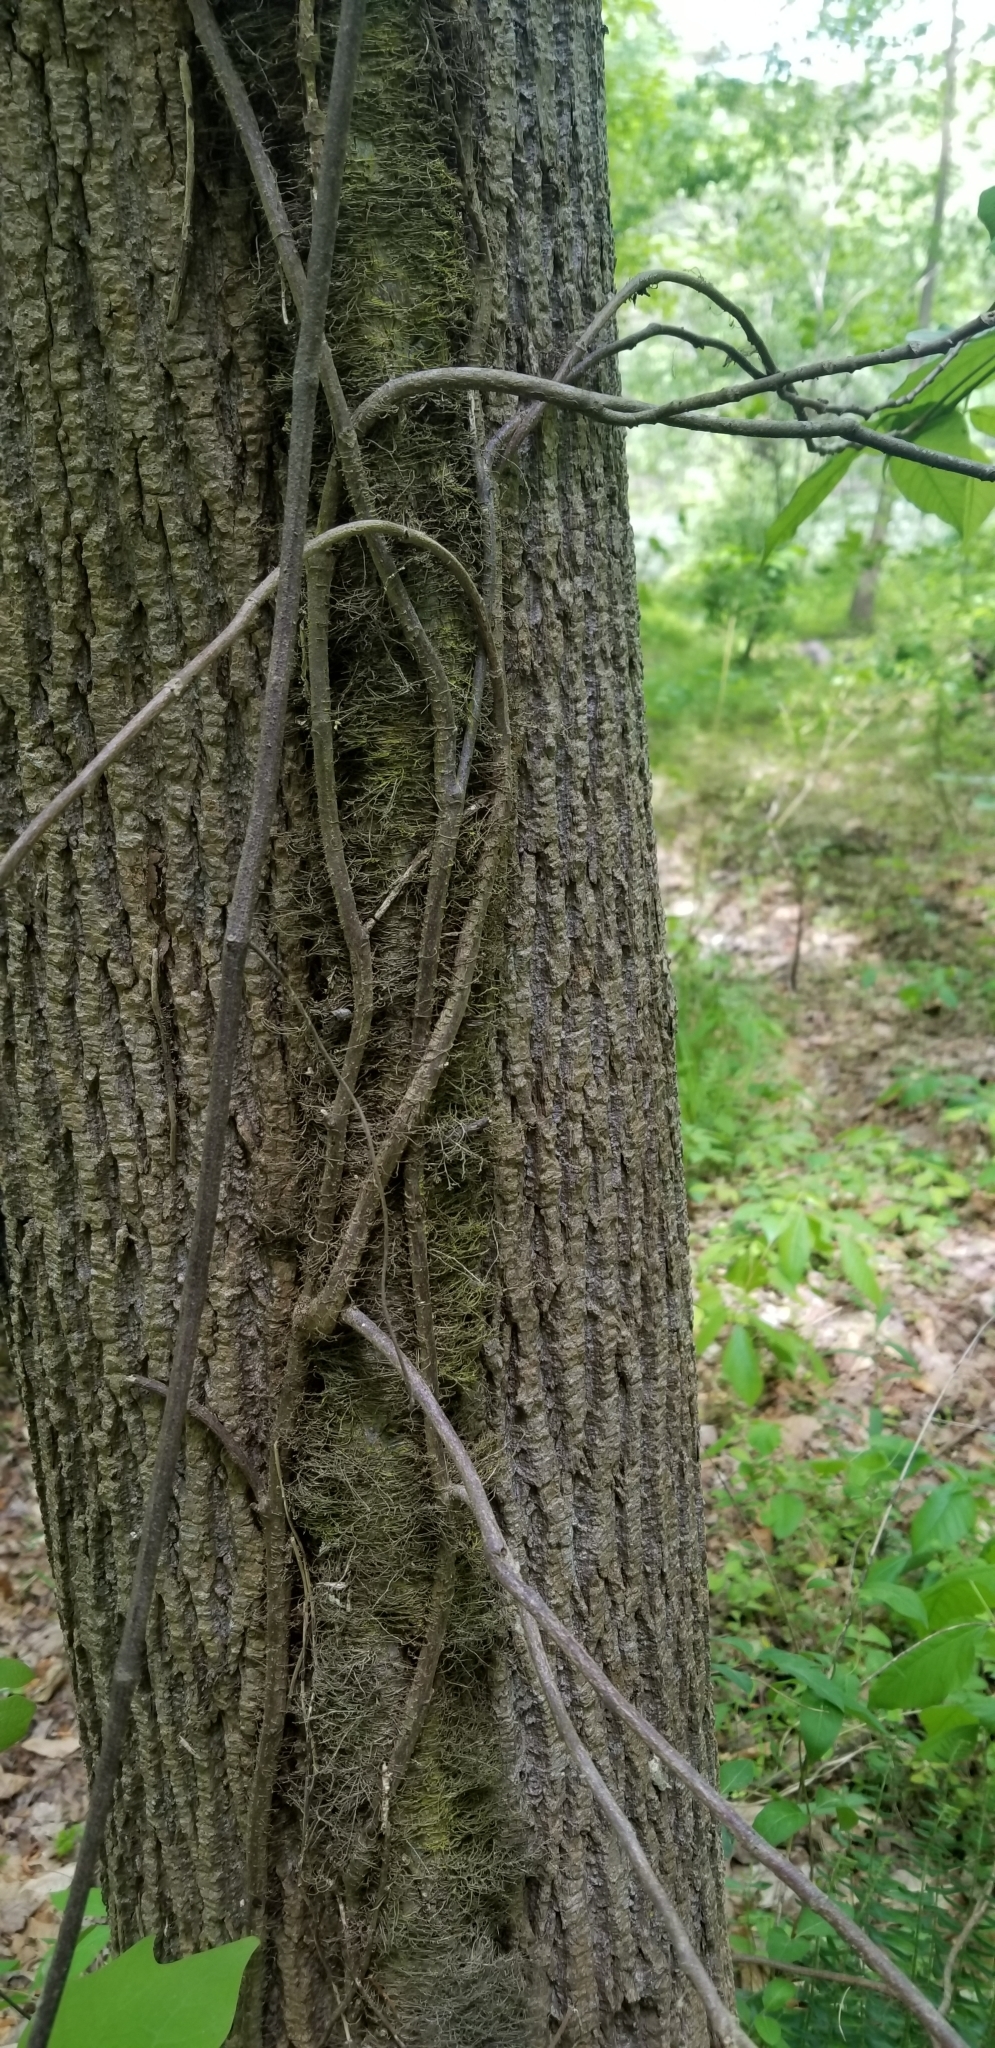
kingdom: Plantae
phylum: Tracheophyta
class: Magnoliopsida
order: Sapindales
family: Anacardiaceae
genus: Toxicodendron
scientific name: Toxicodendron radicans
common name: Poison ivy
